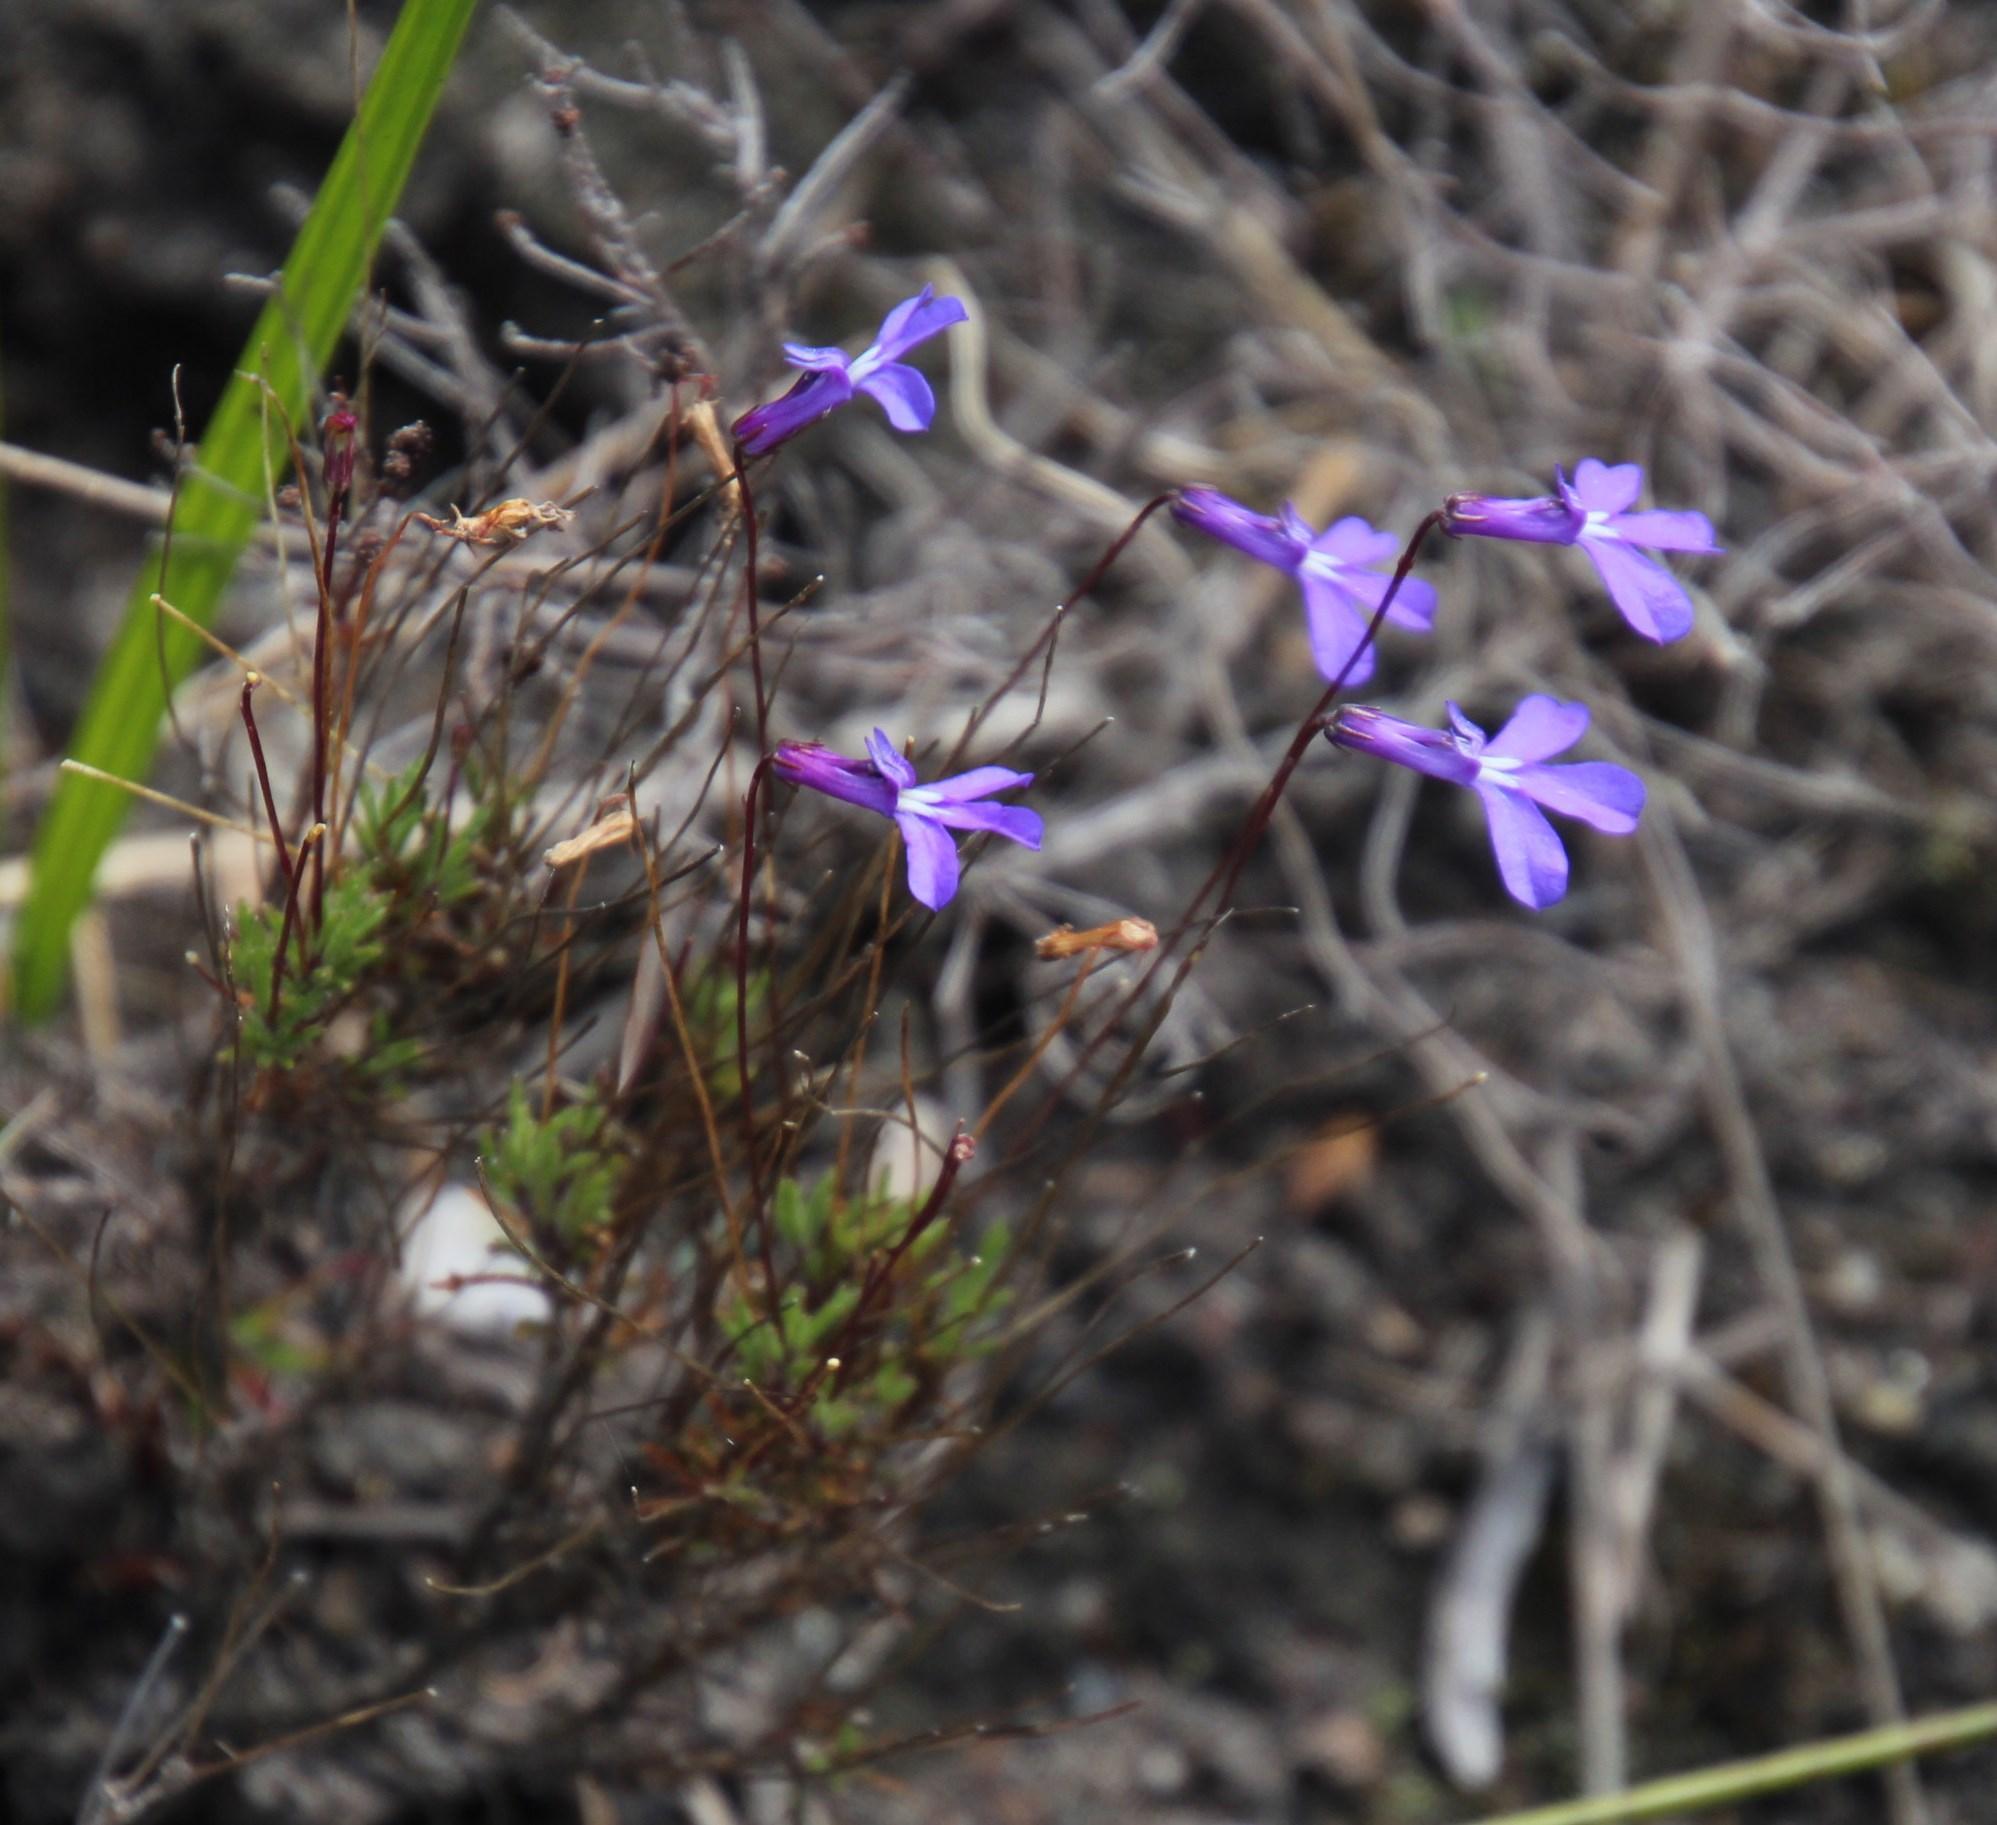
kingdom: Plantae
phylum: Tracheophyta
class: Magnoliopsida
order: Asterales
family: Campanulaceae
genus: Lobelia
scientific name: Lobelia chamaepitys
